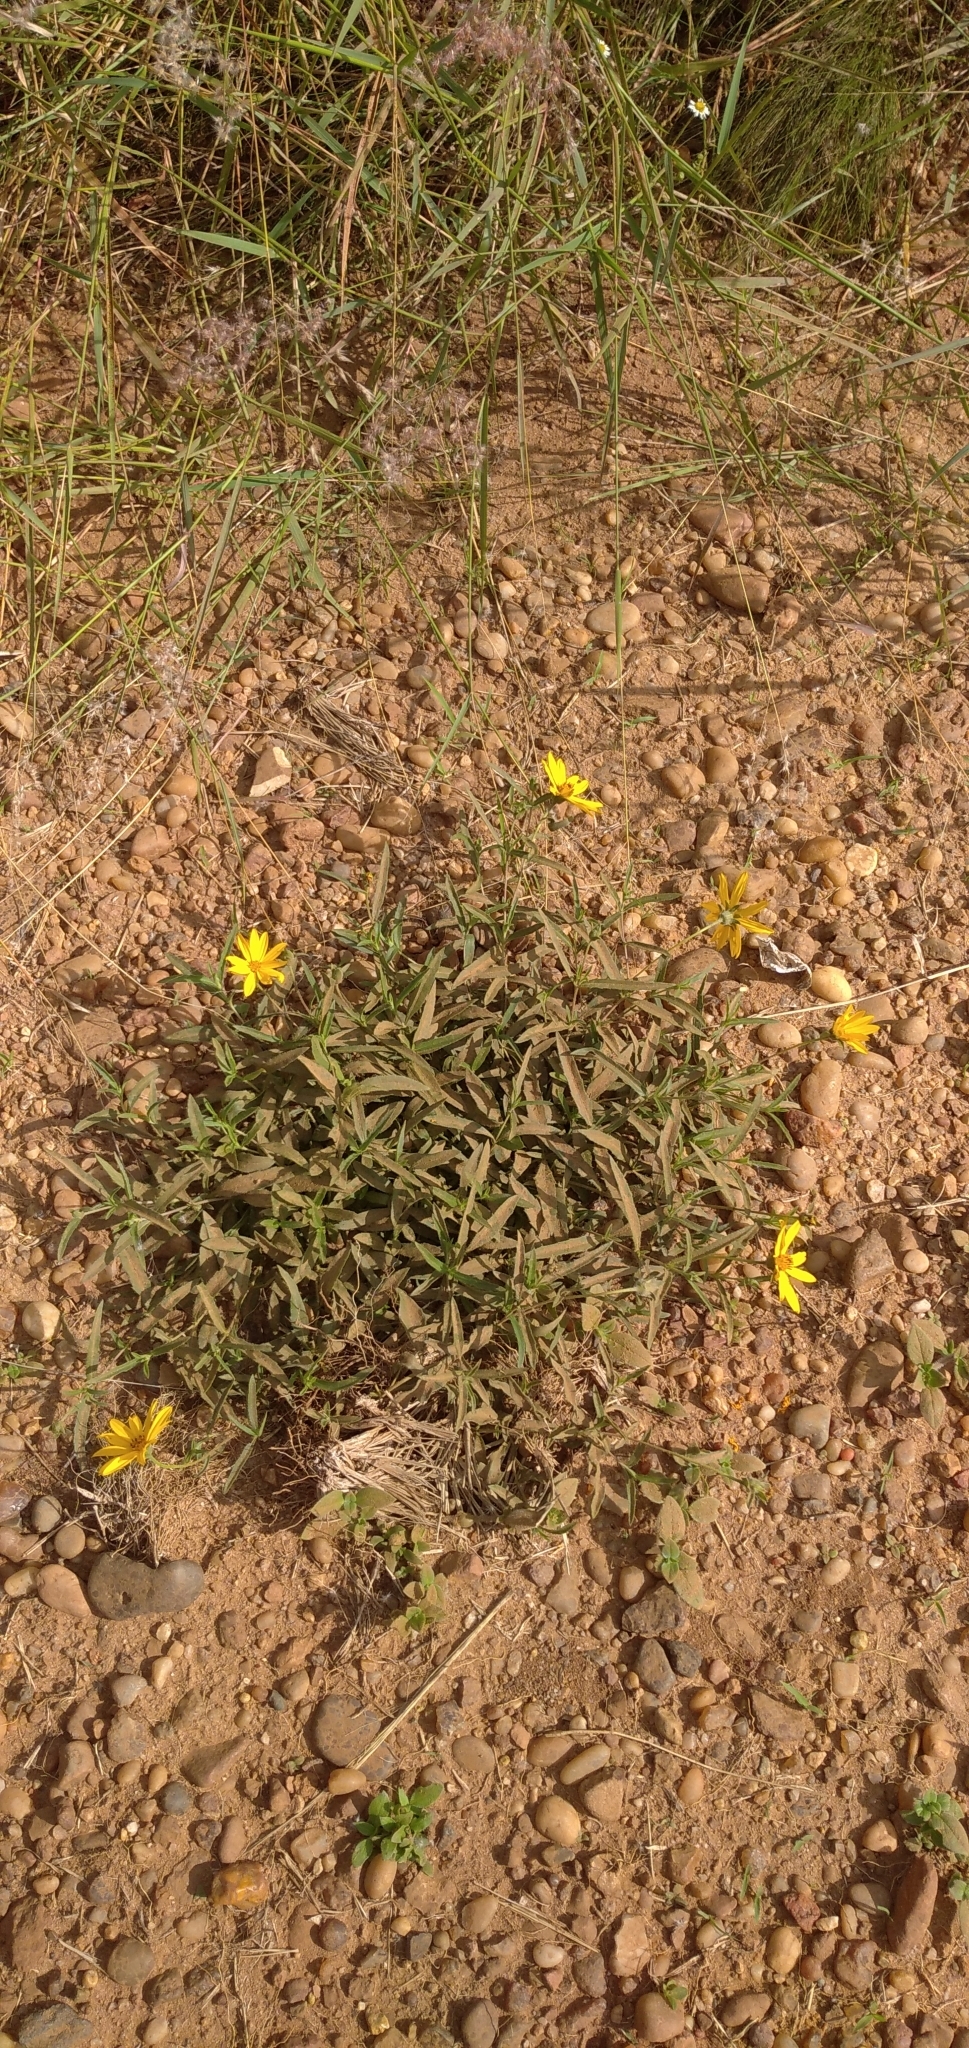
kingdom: Plantae
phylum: Tracheophyta
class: Magnoliopsida
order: Asterales
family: Asteraceae
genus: Wedelia
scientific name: Wedelia montevidensis
